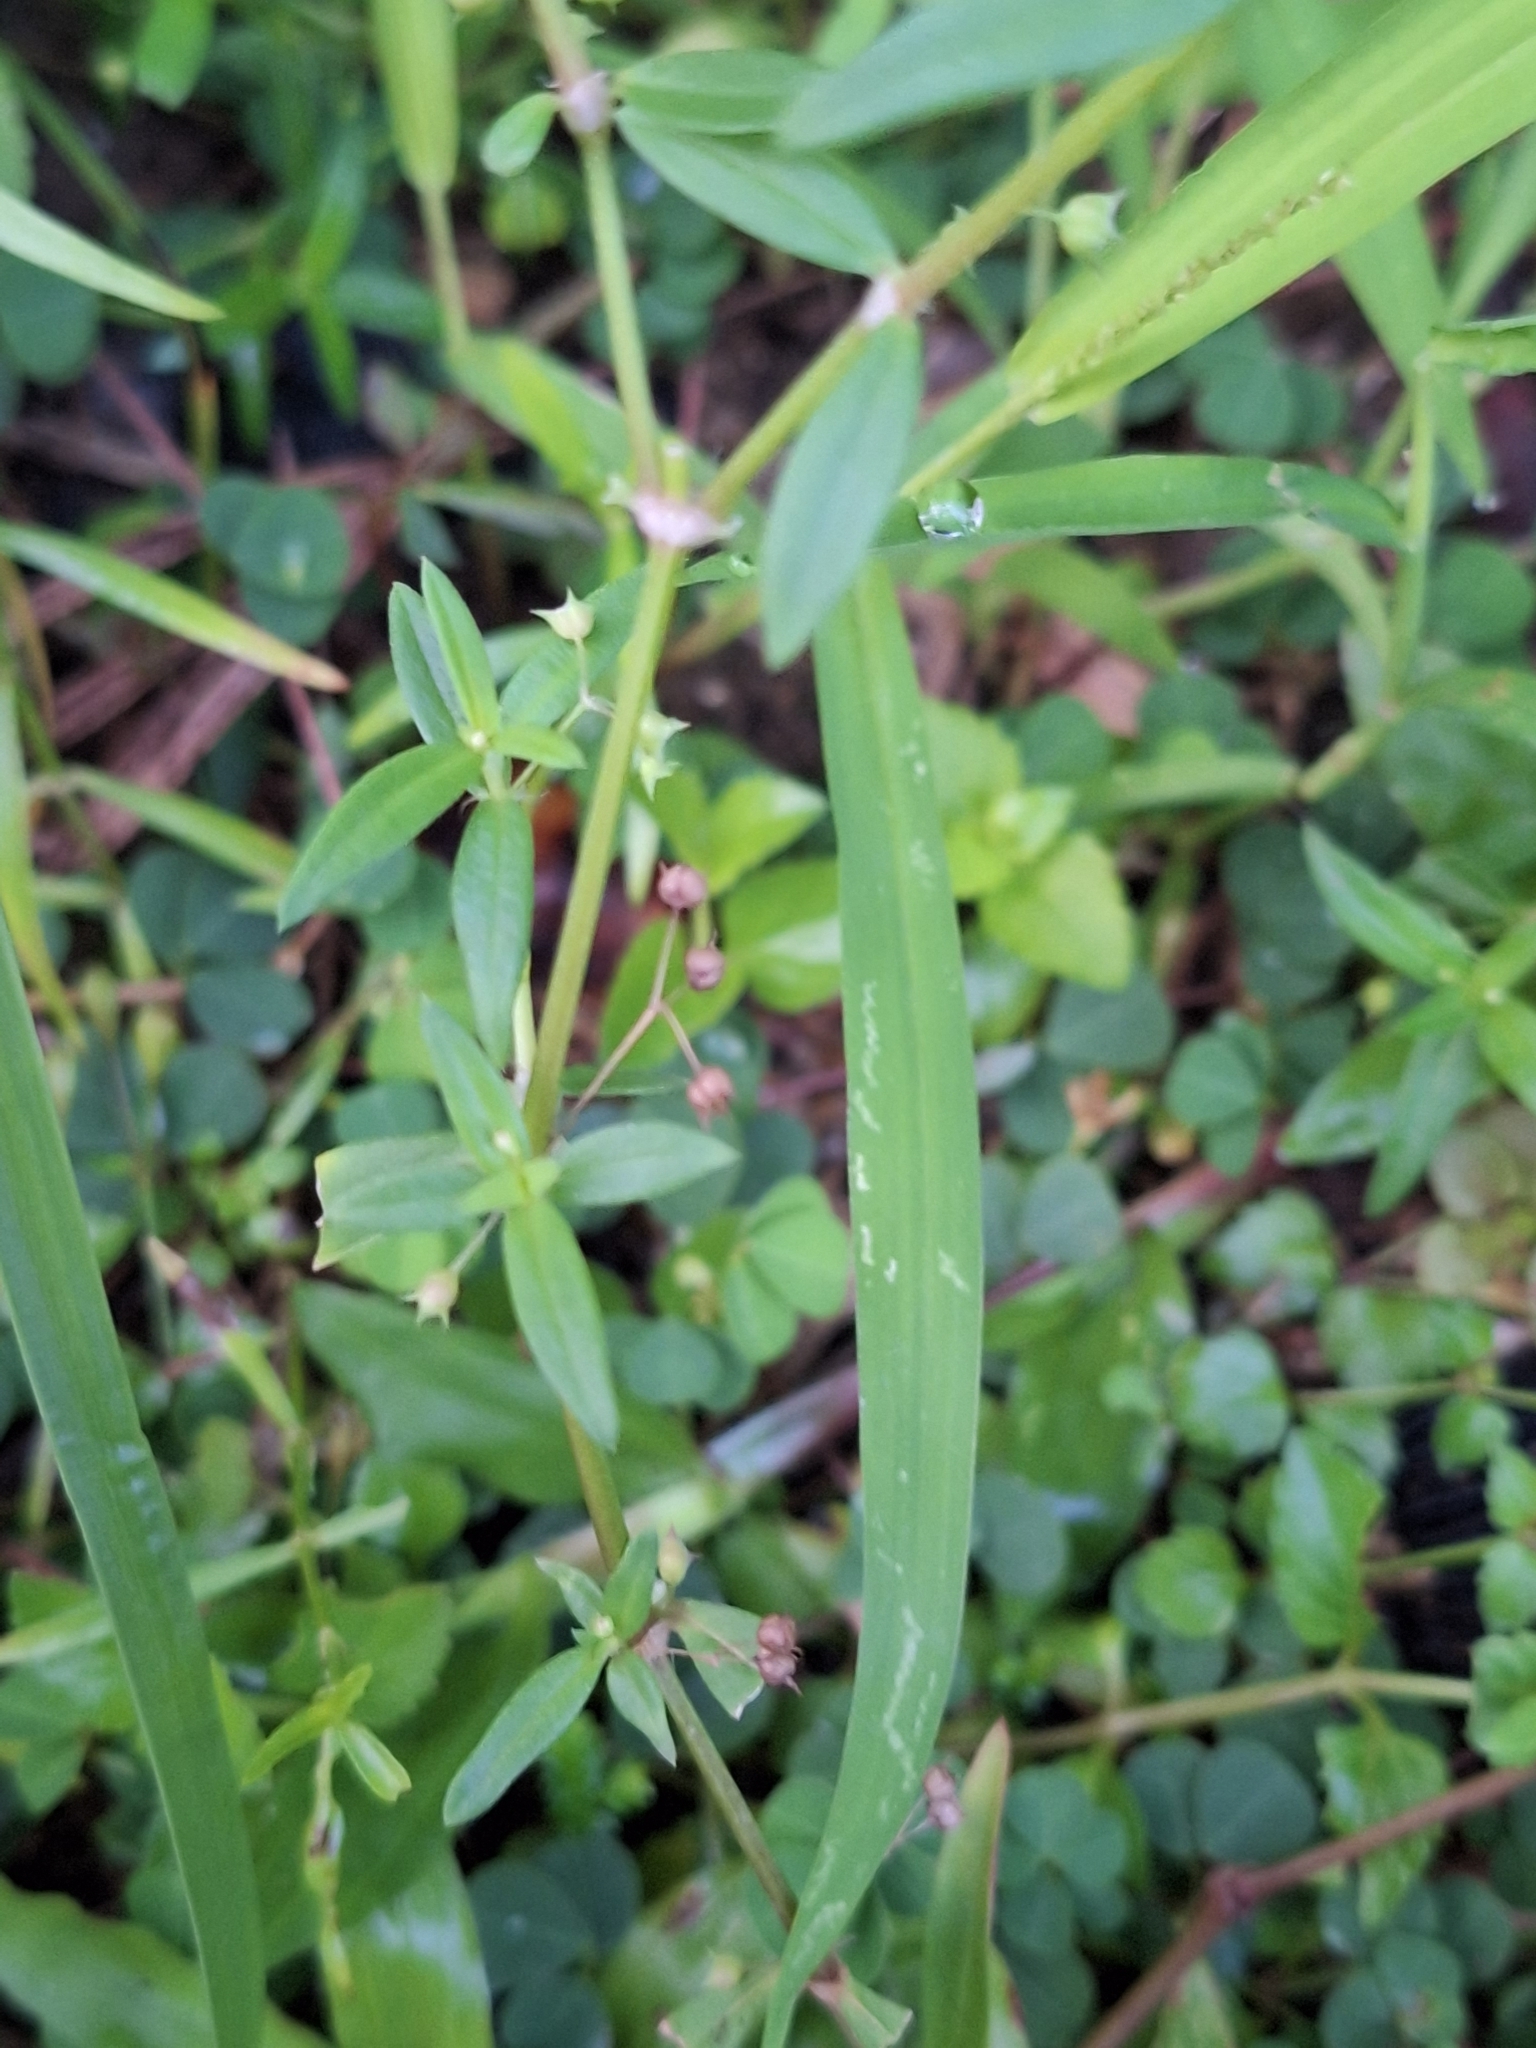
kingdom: Plantae
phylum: Tracheophyta
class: Magnoliopsida
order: Gentianales
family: Rubiaceae
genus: Oldenlandia
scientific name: Oldenlandia corymbosa
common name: Flat-top mille graines
